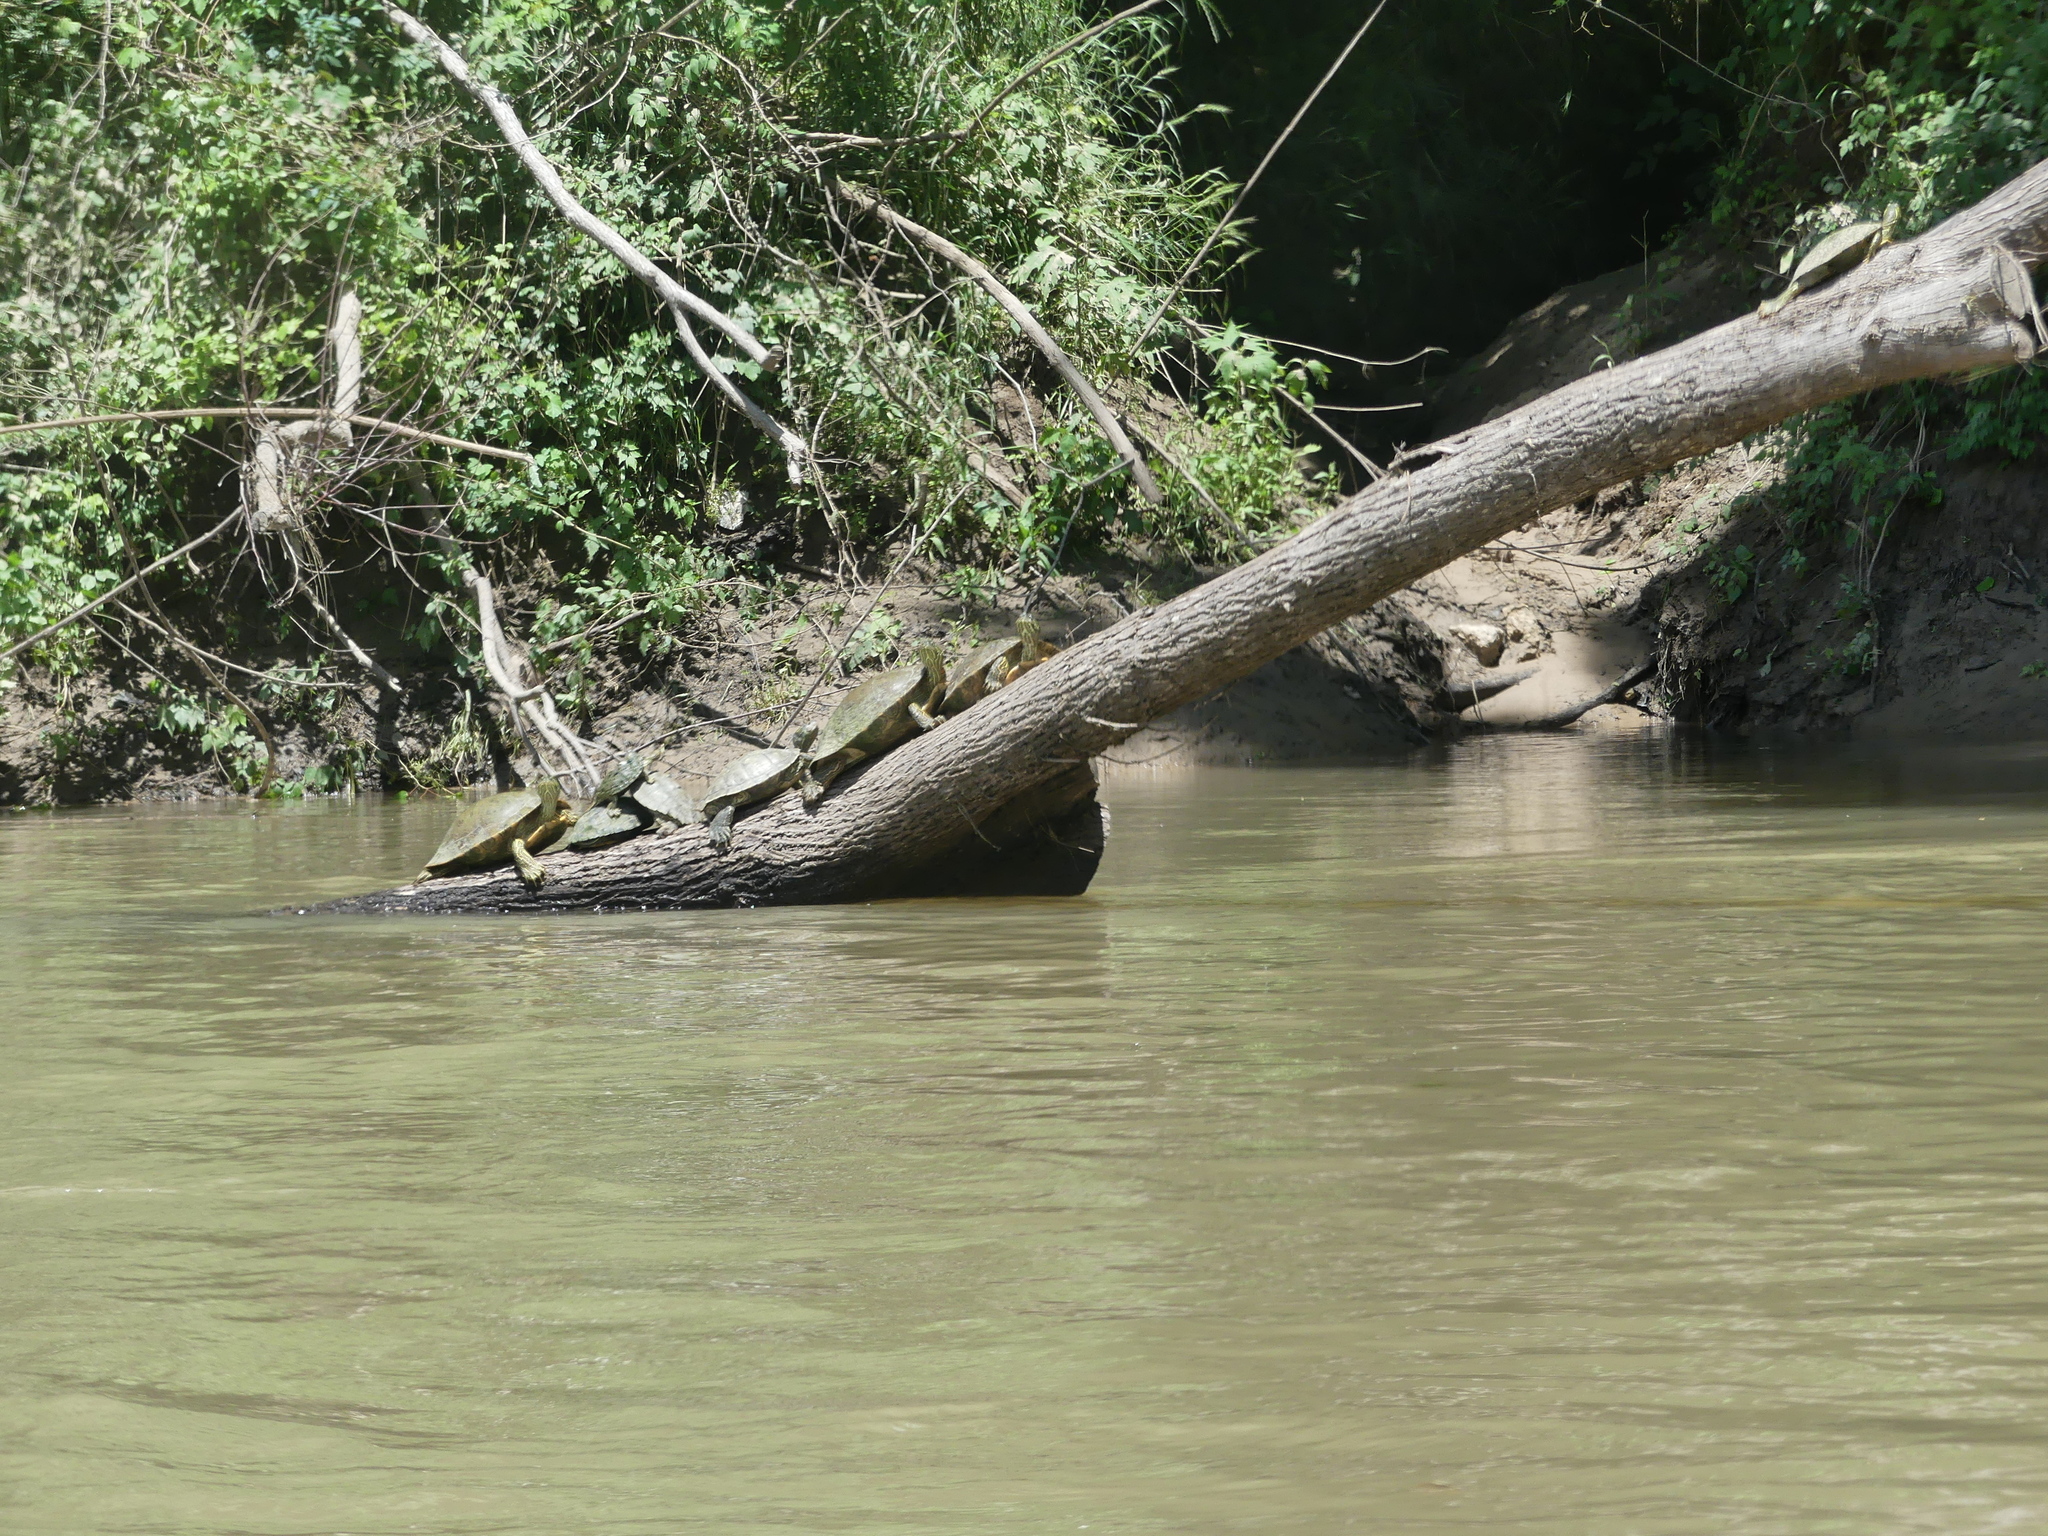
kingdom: Animalia
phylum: Chordata
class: Testudines
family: Emydidae
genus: Graptemys
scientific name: Graptemys versa
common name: Texas map turtle
